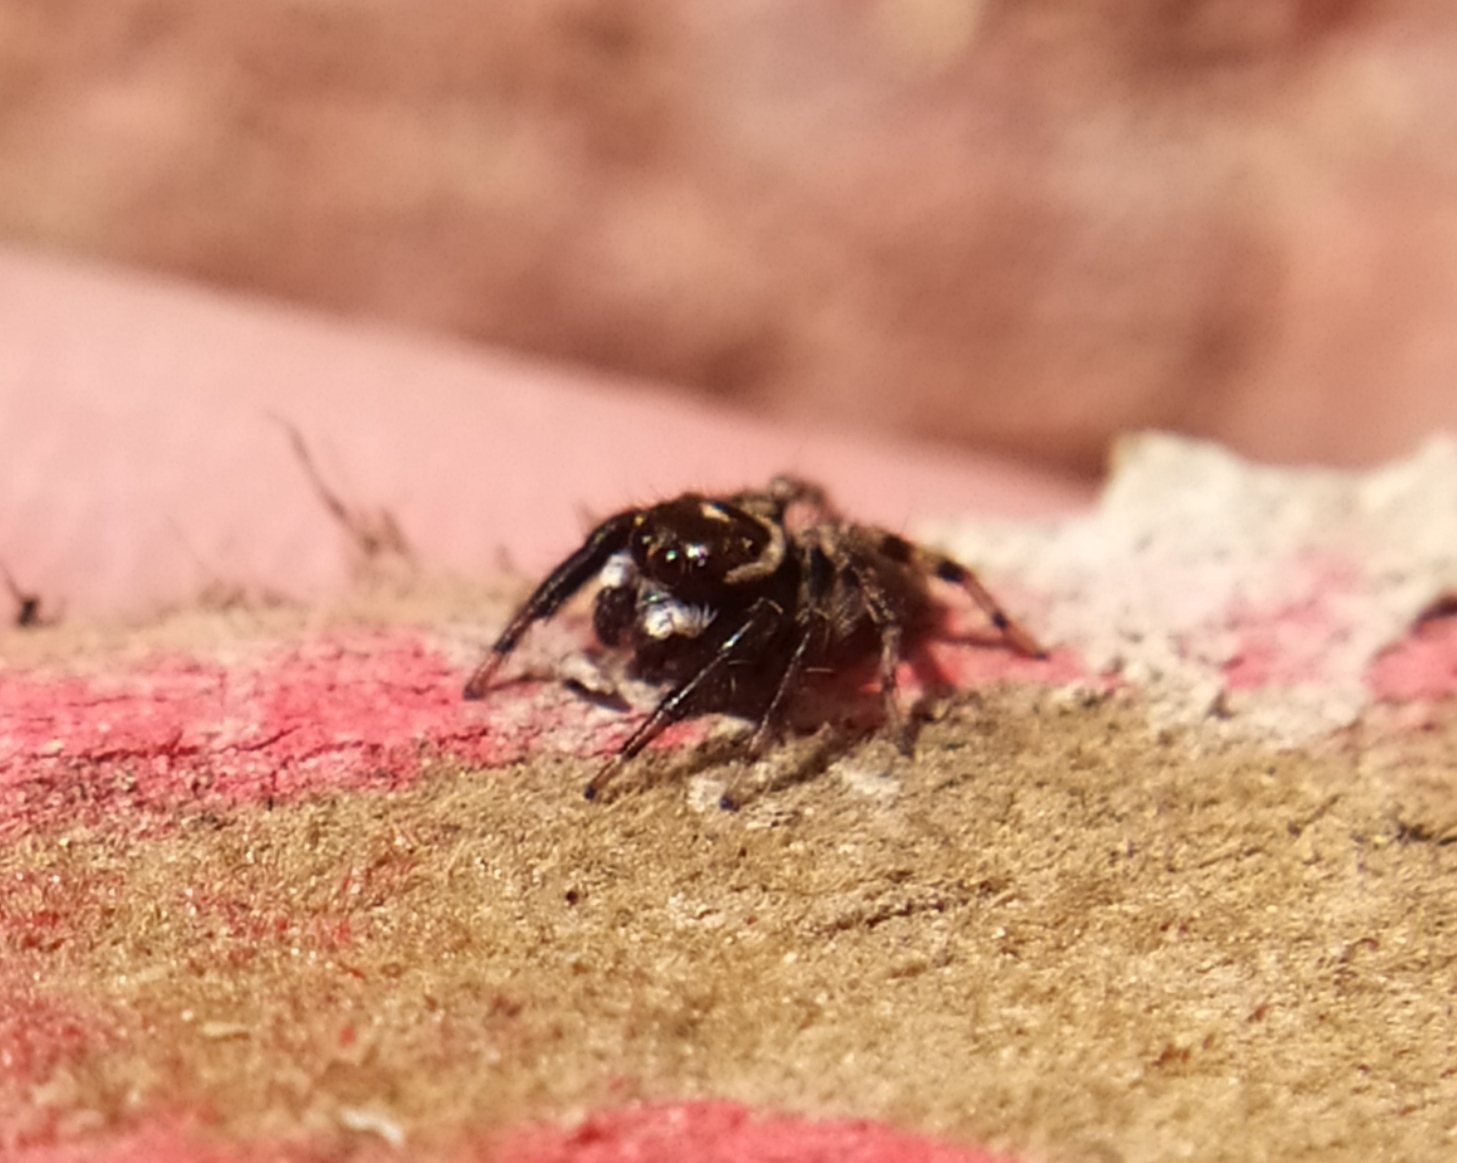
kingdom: Animalia
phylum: Arthropoda
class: Arachnida
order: Araneae
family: Salticidae
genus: Evarcha
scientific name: Evarcha jucunda
